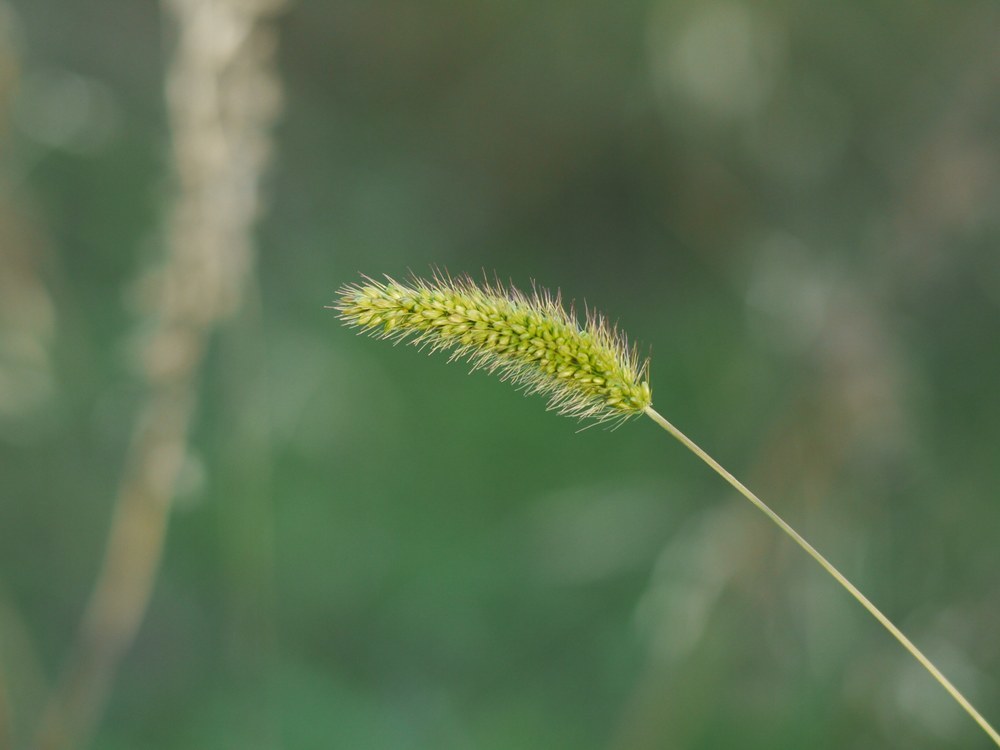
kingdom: Plantae
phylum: Tracheophyta
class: Liliopsida
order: Poales
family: Poaceae
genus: Setaria
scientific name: Setaria viridis
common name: Green bristlegrass
